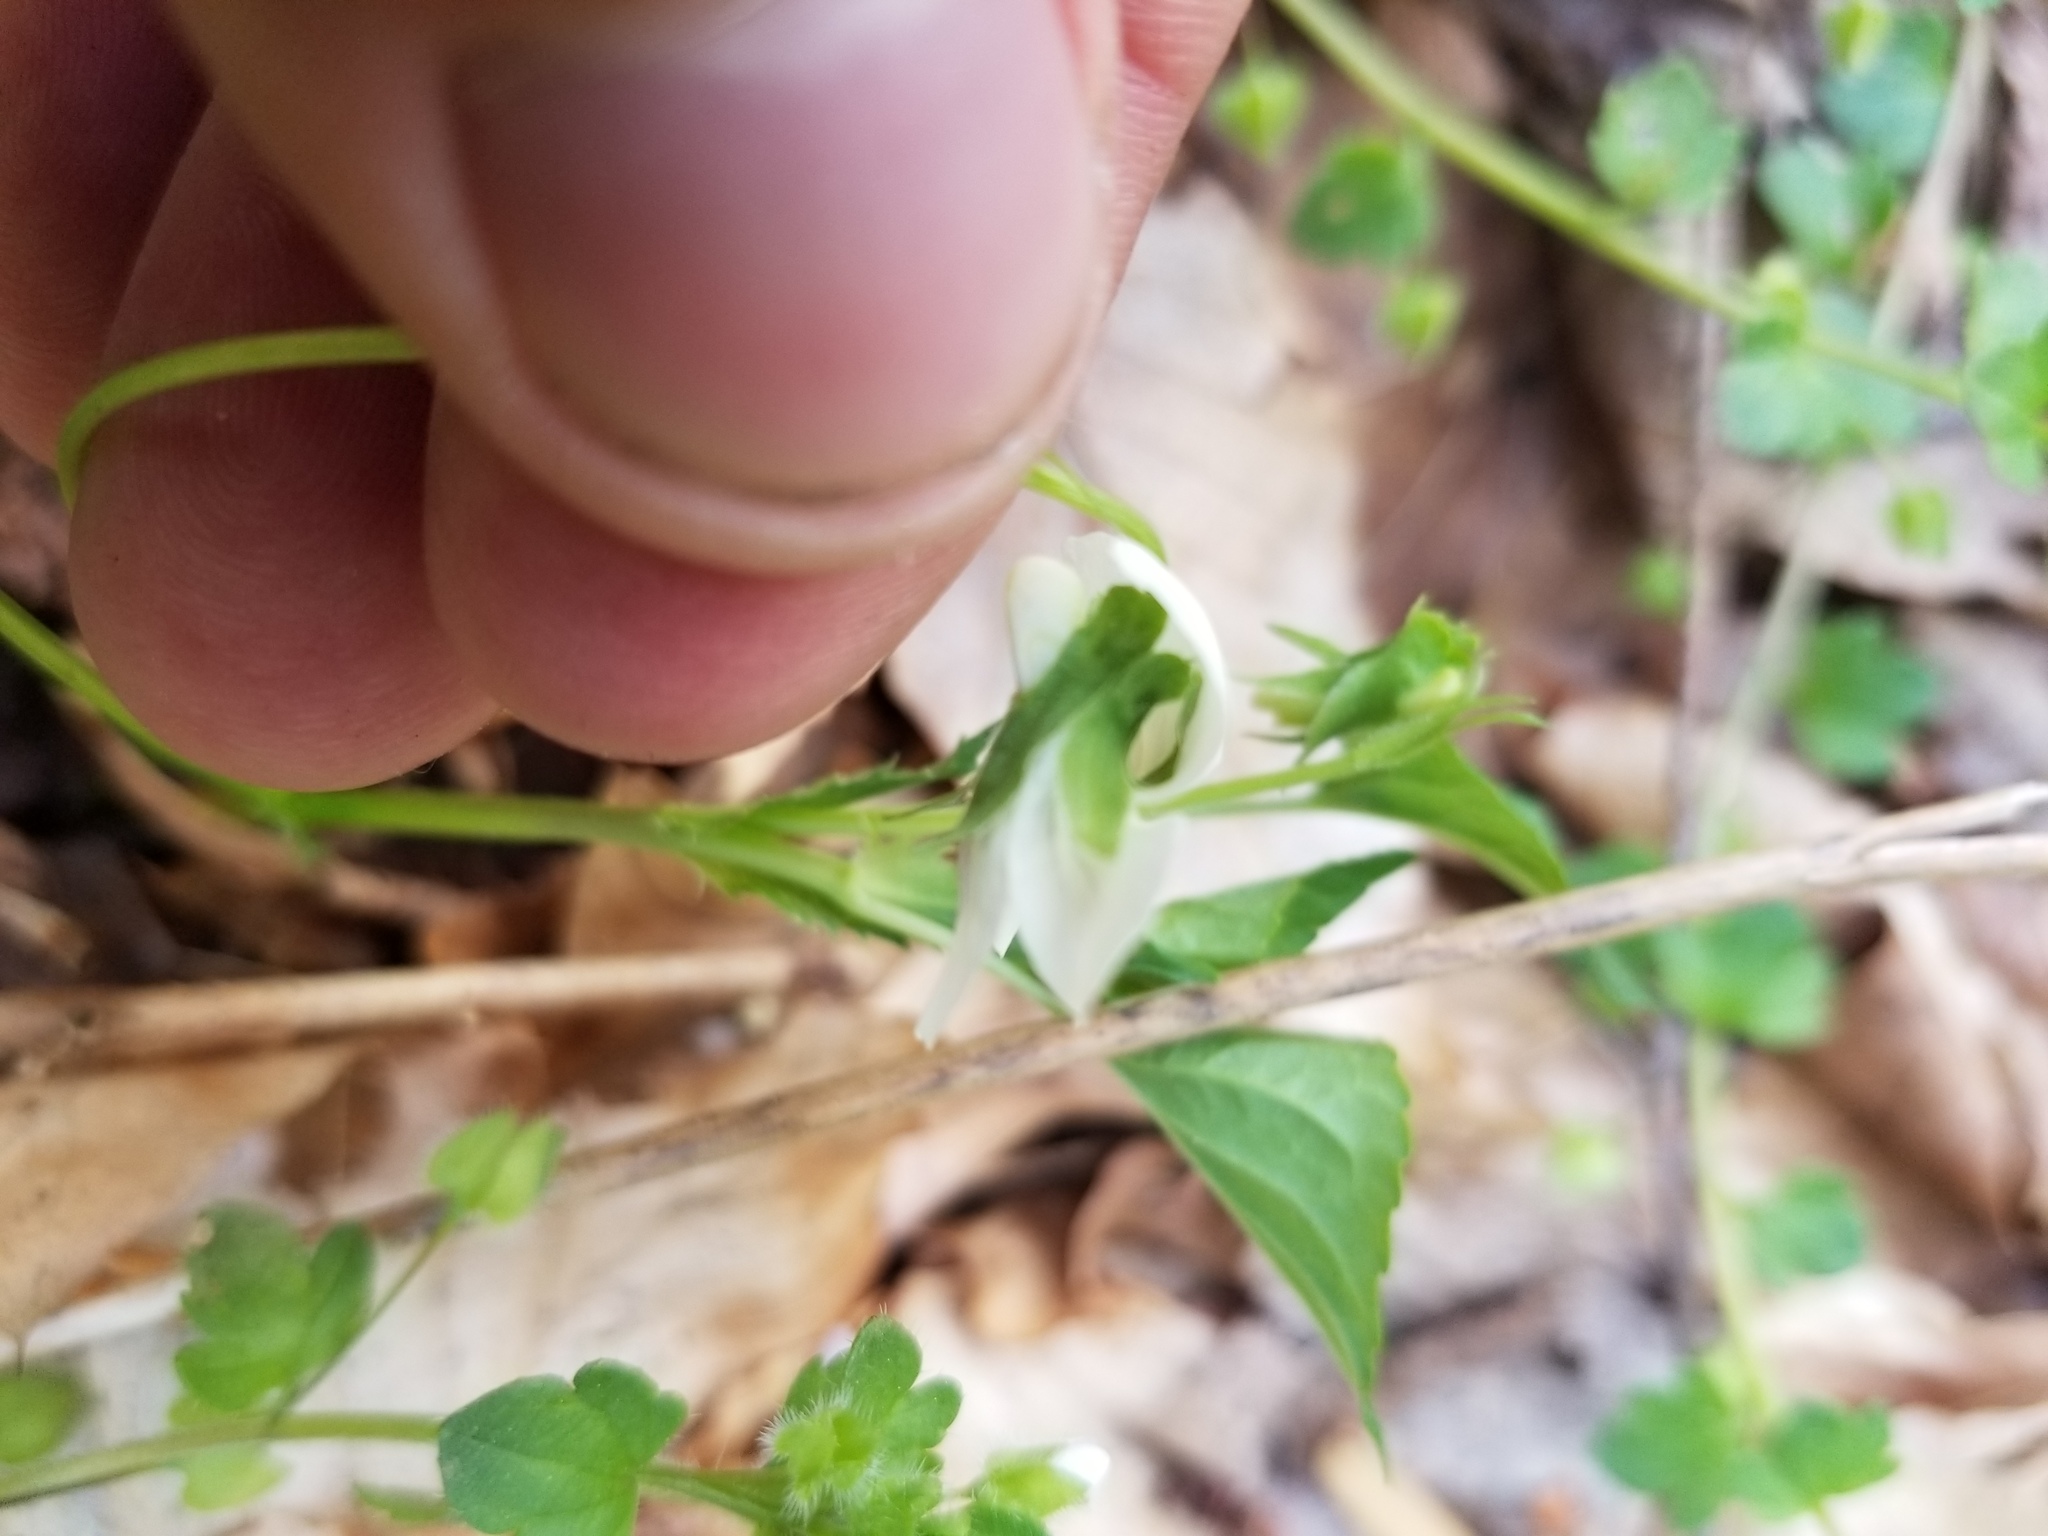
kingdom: Plantae
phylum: Tracheophyta
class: Magnoliopsida
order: Malpighiales
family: Violaceae
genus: Viola
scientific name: Viola striata
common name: Cream violet
